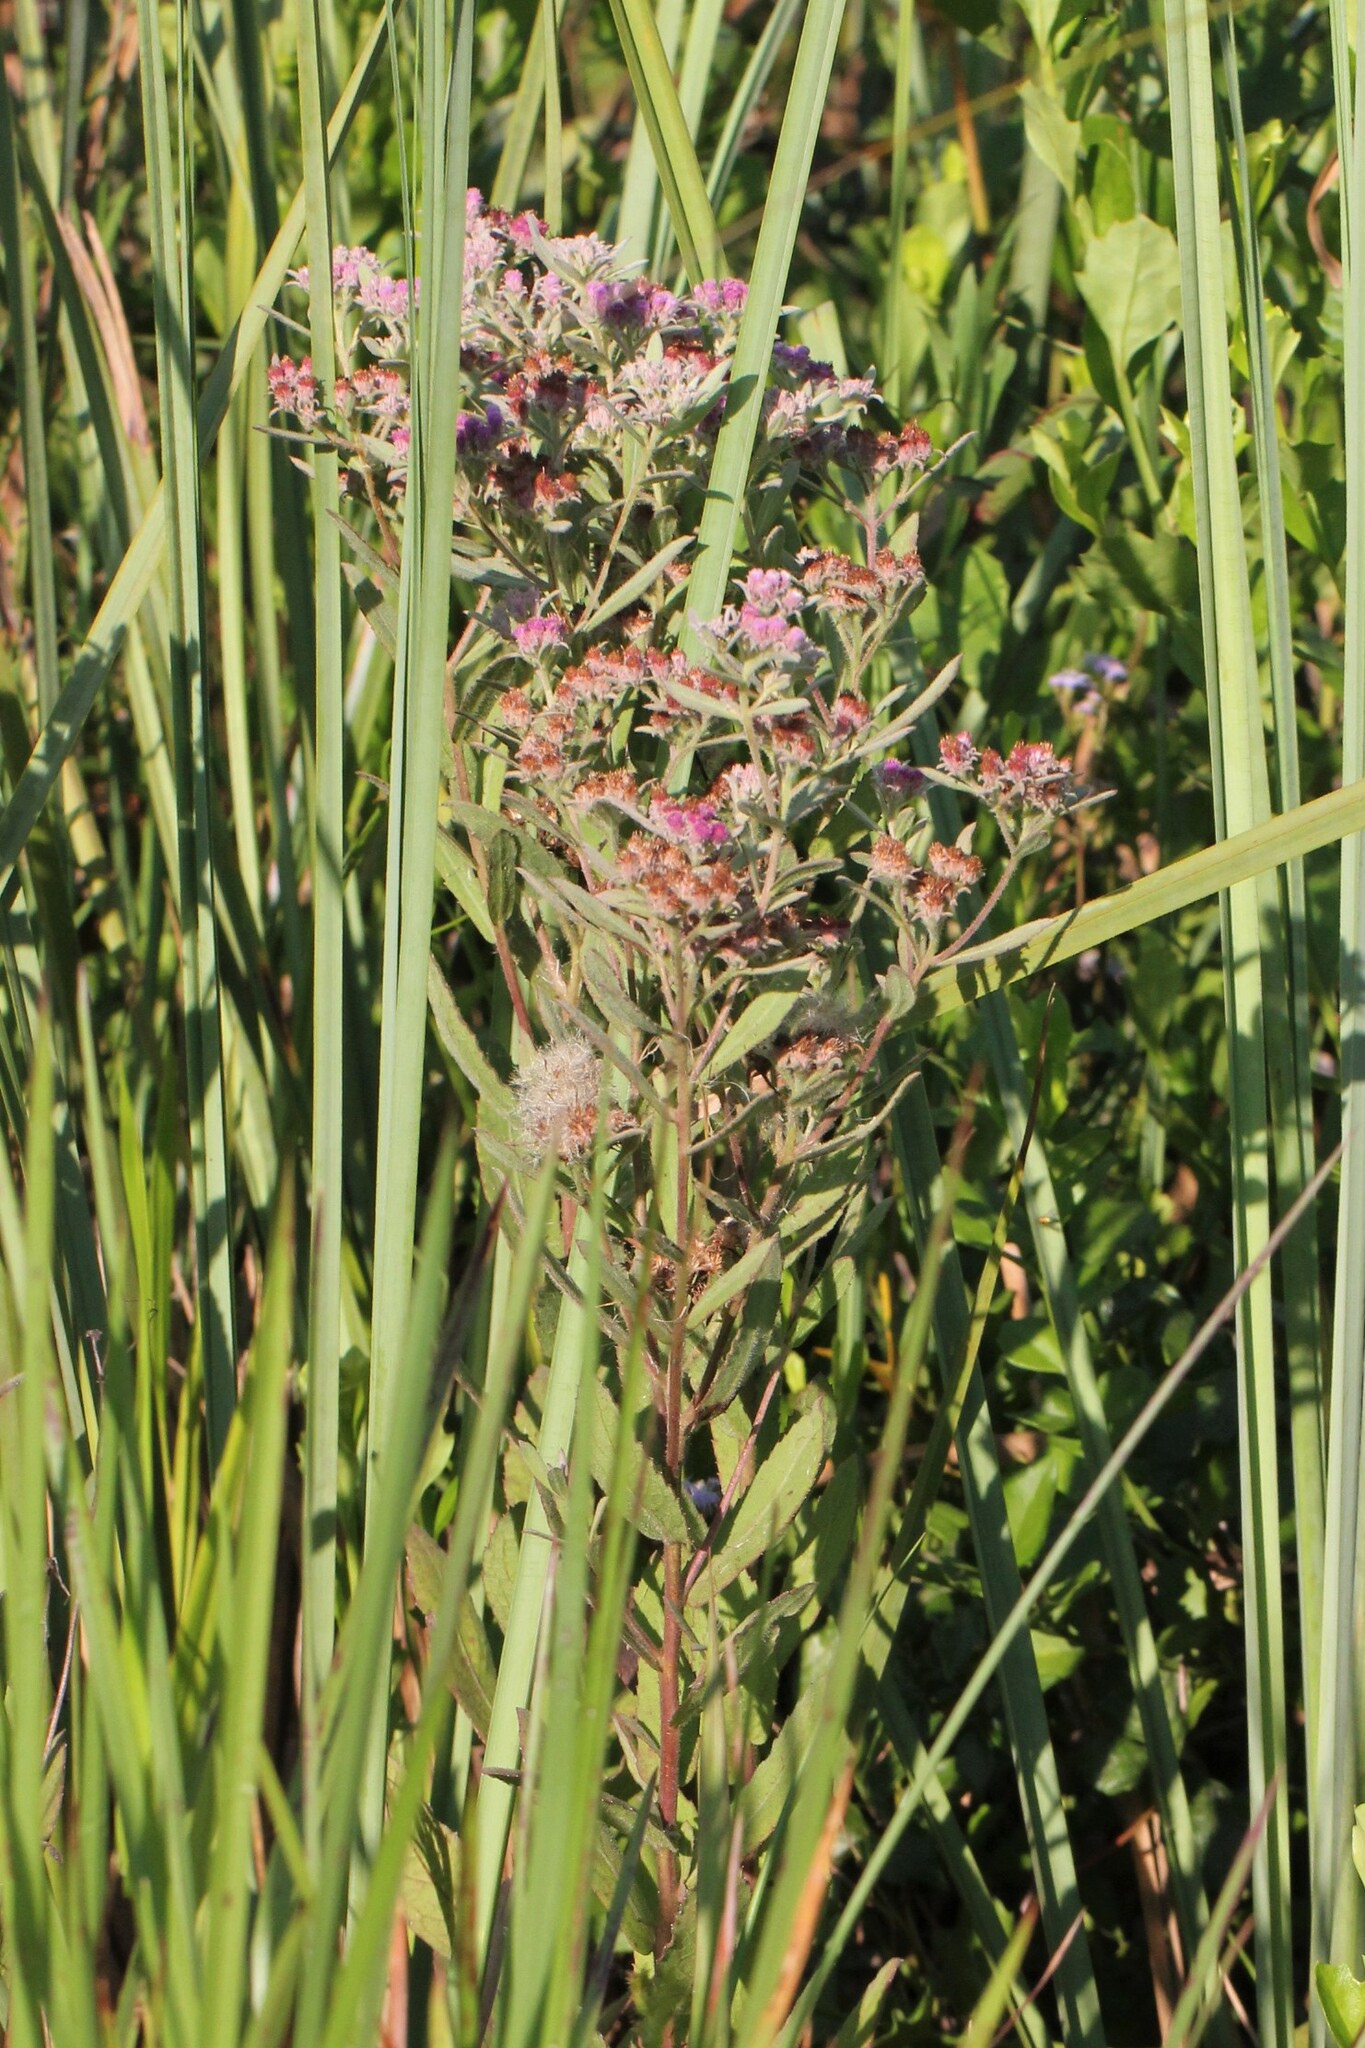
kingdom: Plantae
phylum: Tracheophyta
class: Magnoliopsida
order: Asterales
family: Asteraceae
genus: Pluchea
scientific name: Pluchea baccharis
